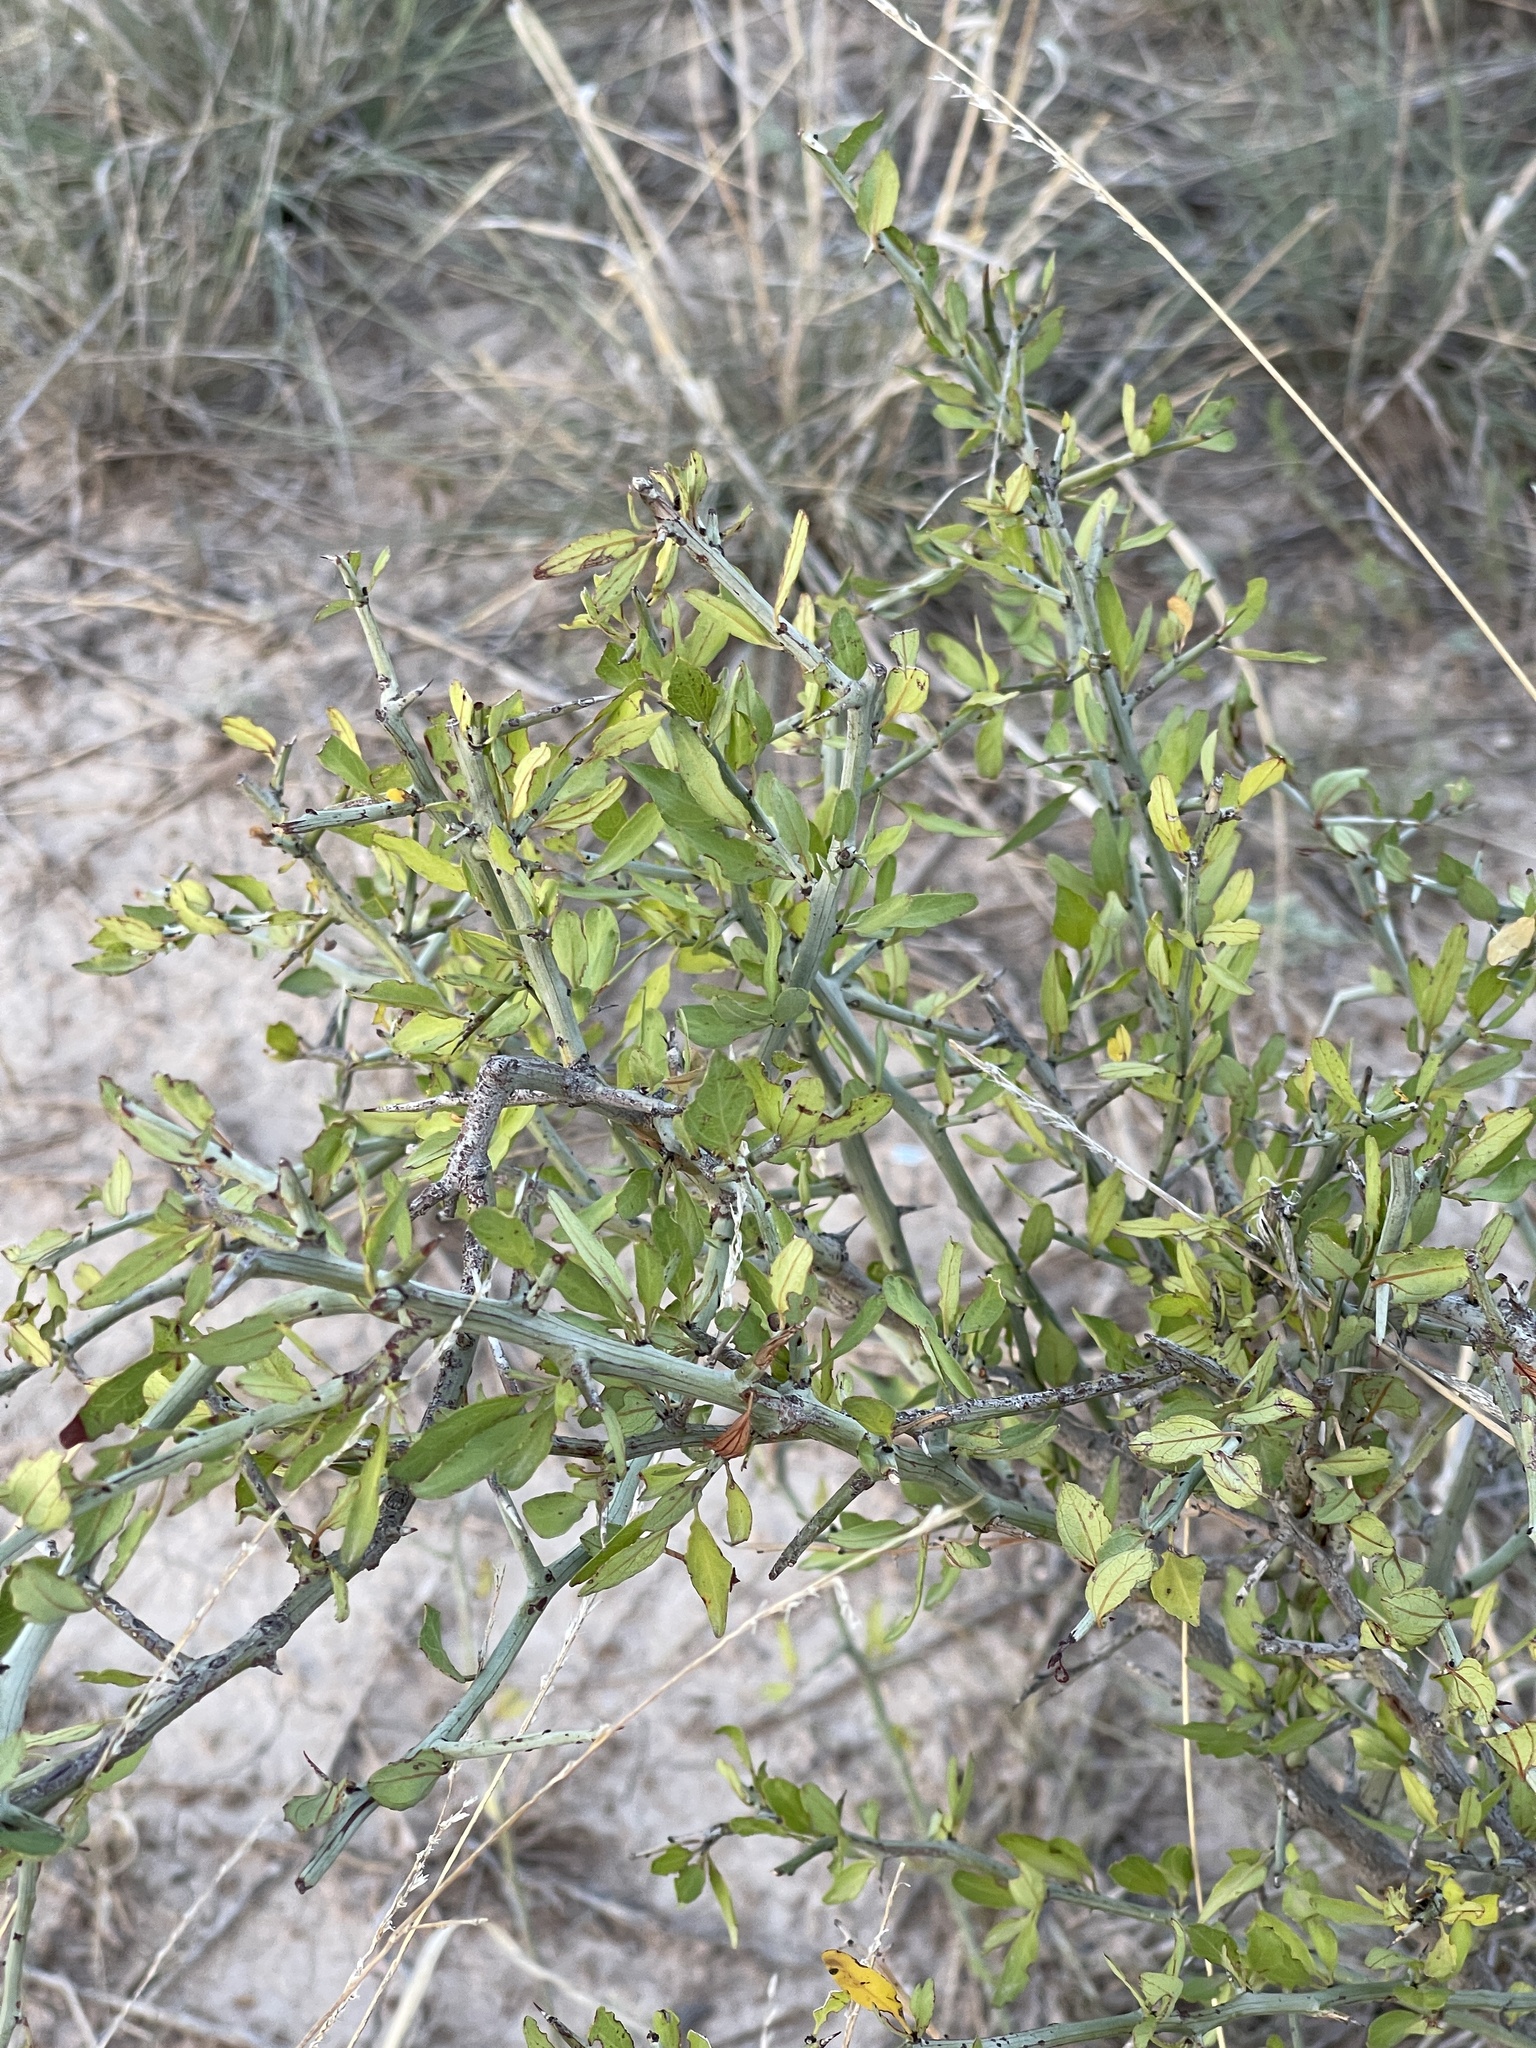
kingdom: Plantae
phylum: Tracheophyta
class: Magnoliopsida
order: Rosales
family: Rhamnaceae
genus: Sarcomphalus
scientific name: Sarcomphalus obtusifolius
